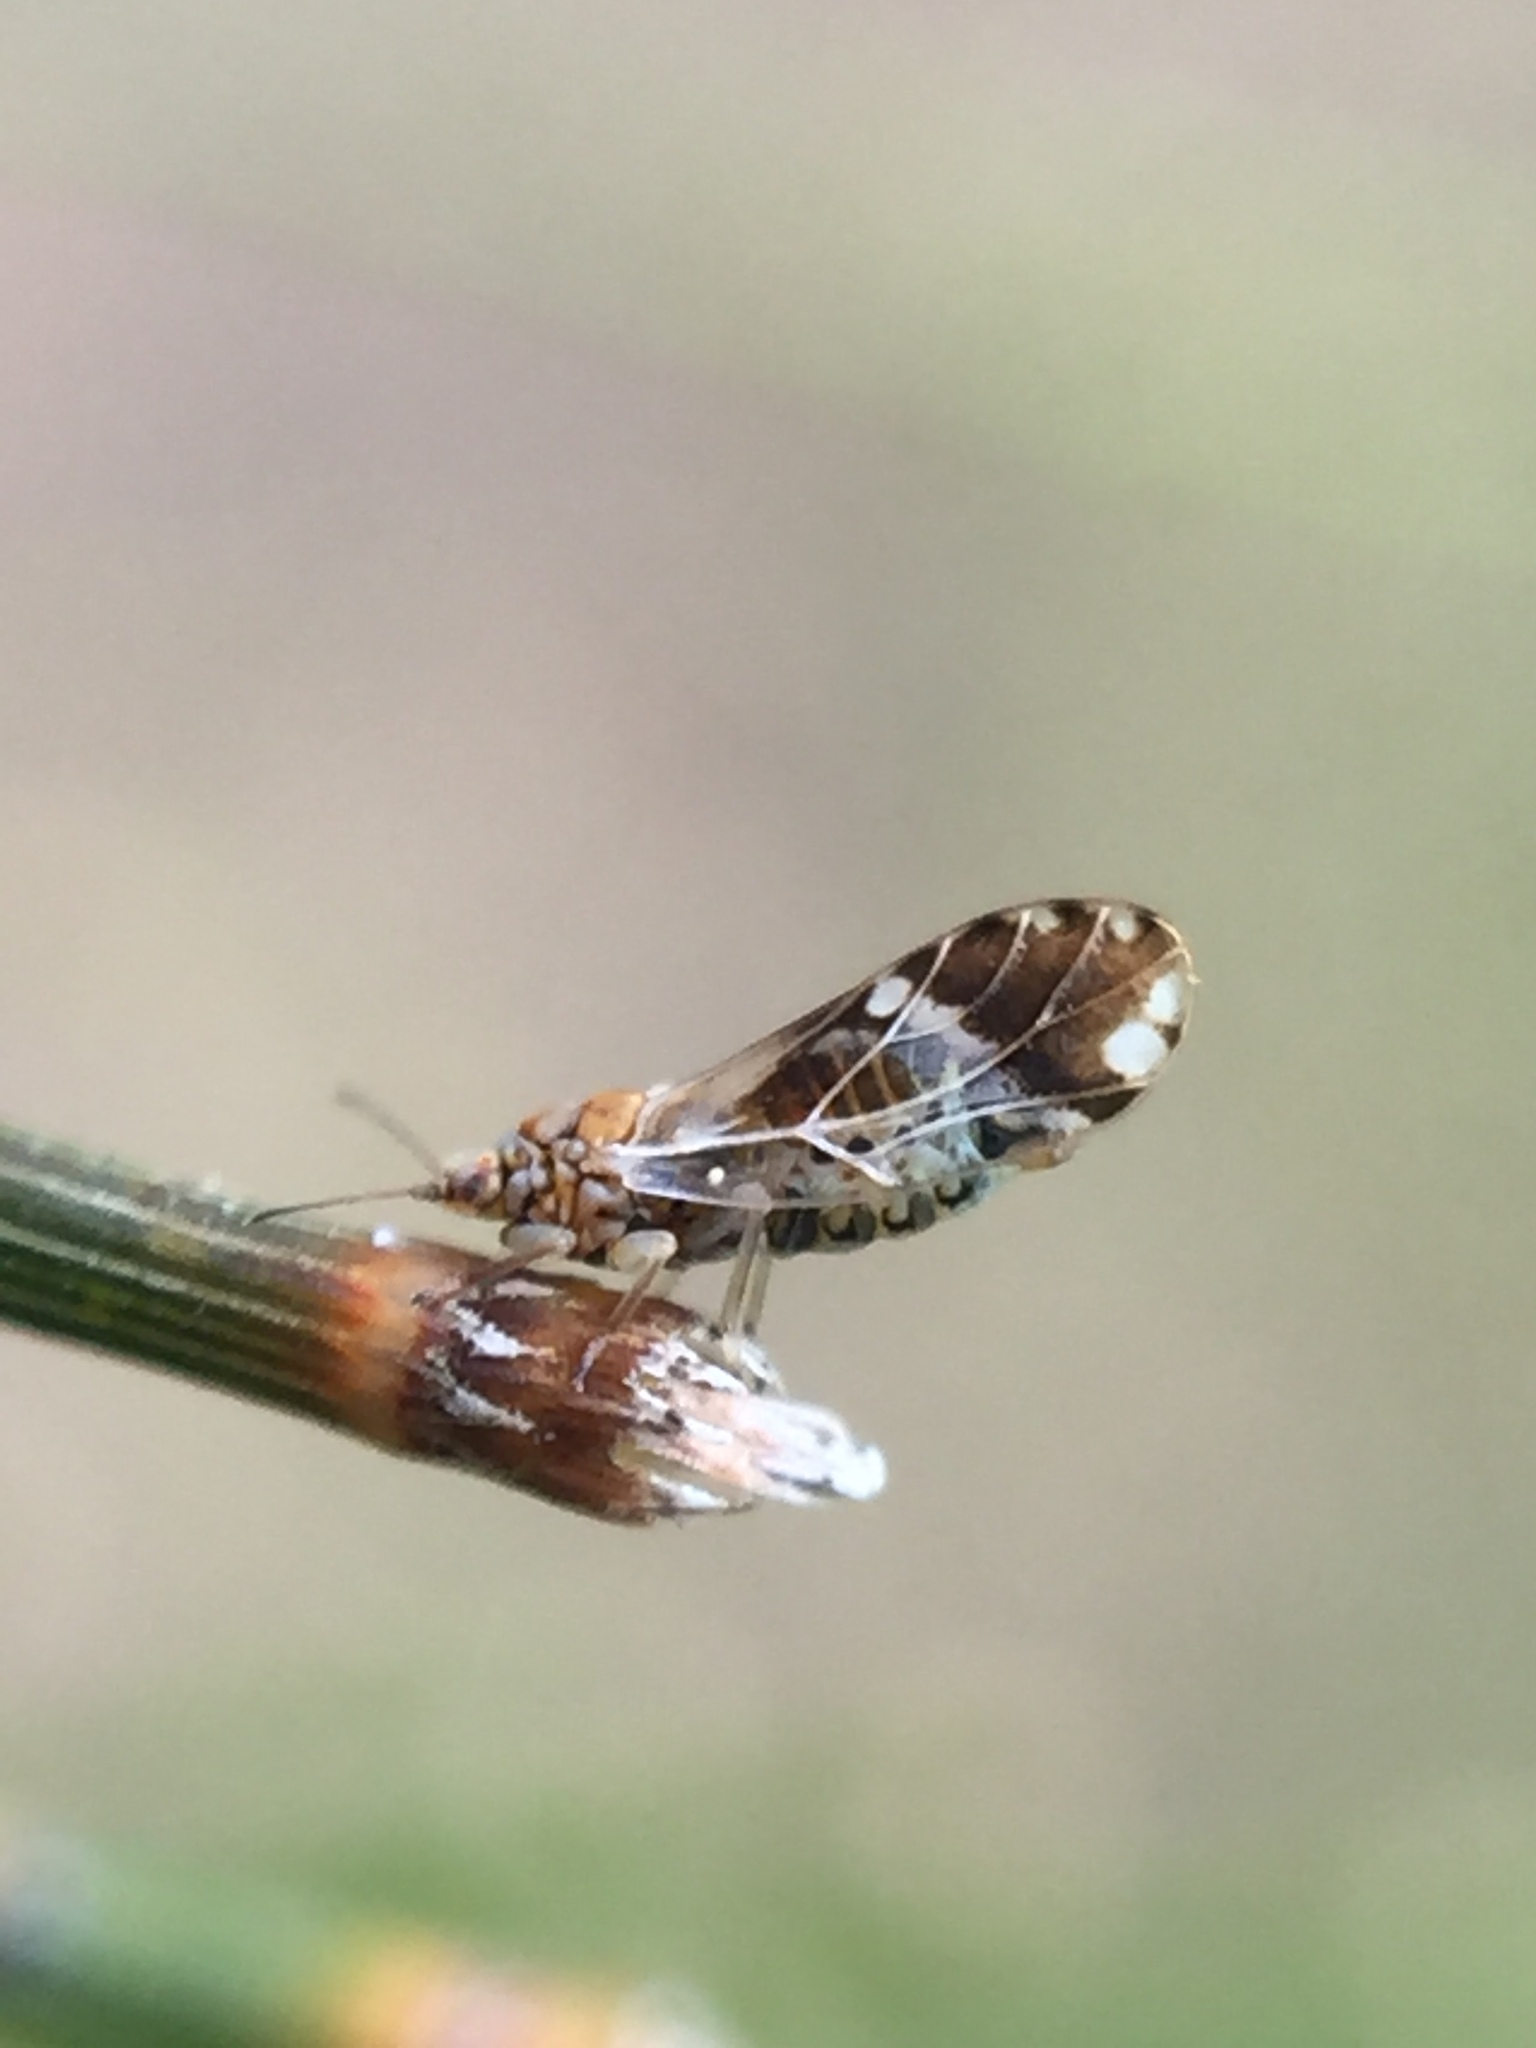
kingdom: Animalia
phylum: Arthropoda
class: Insecta
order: Hemiptera
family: Triozidae
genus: Casuarinicola
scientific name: Casuarinicola nigrimaculatus
